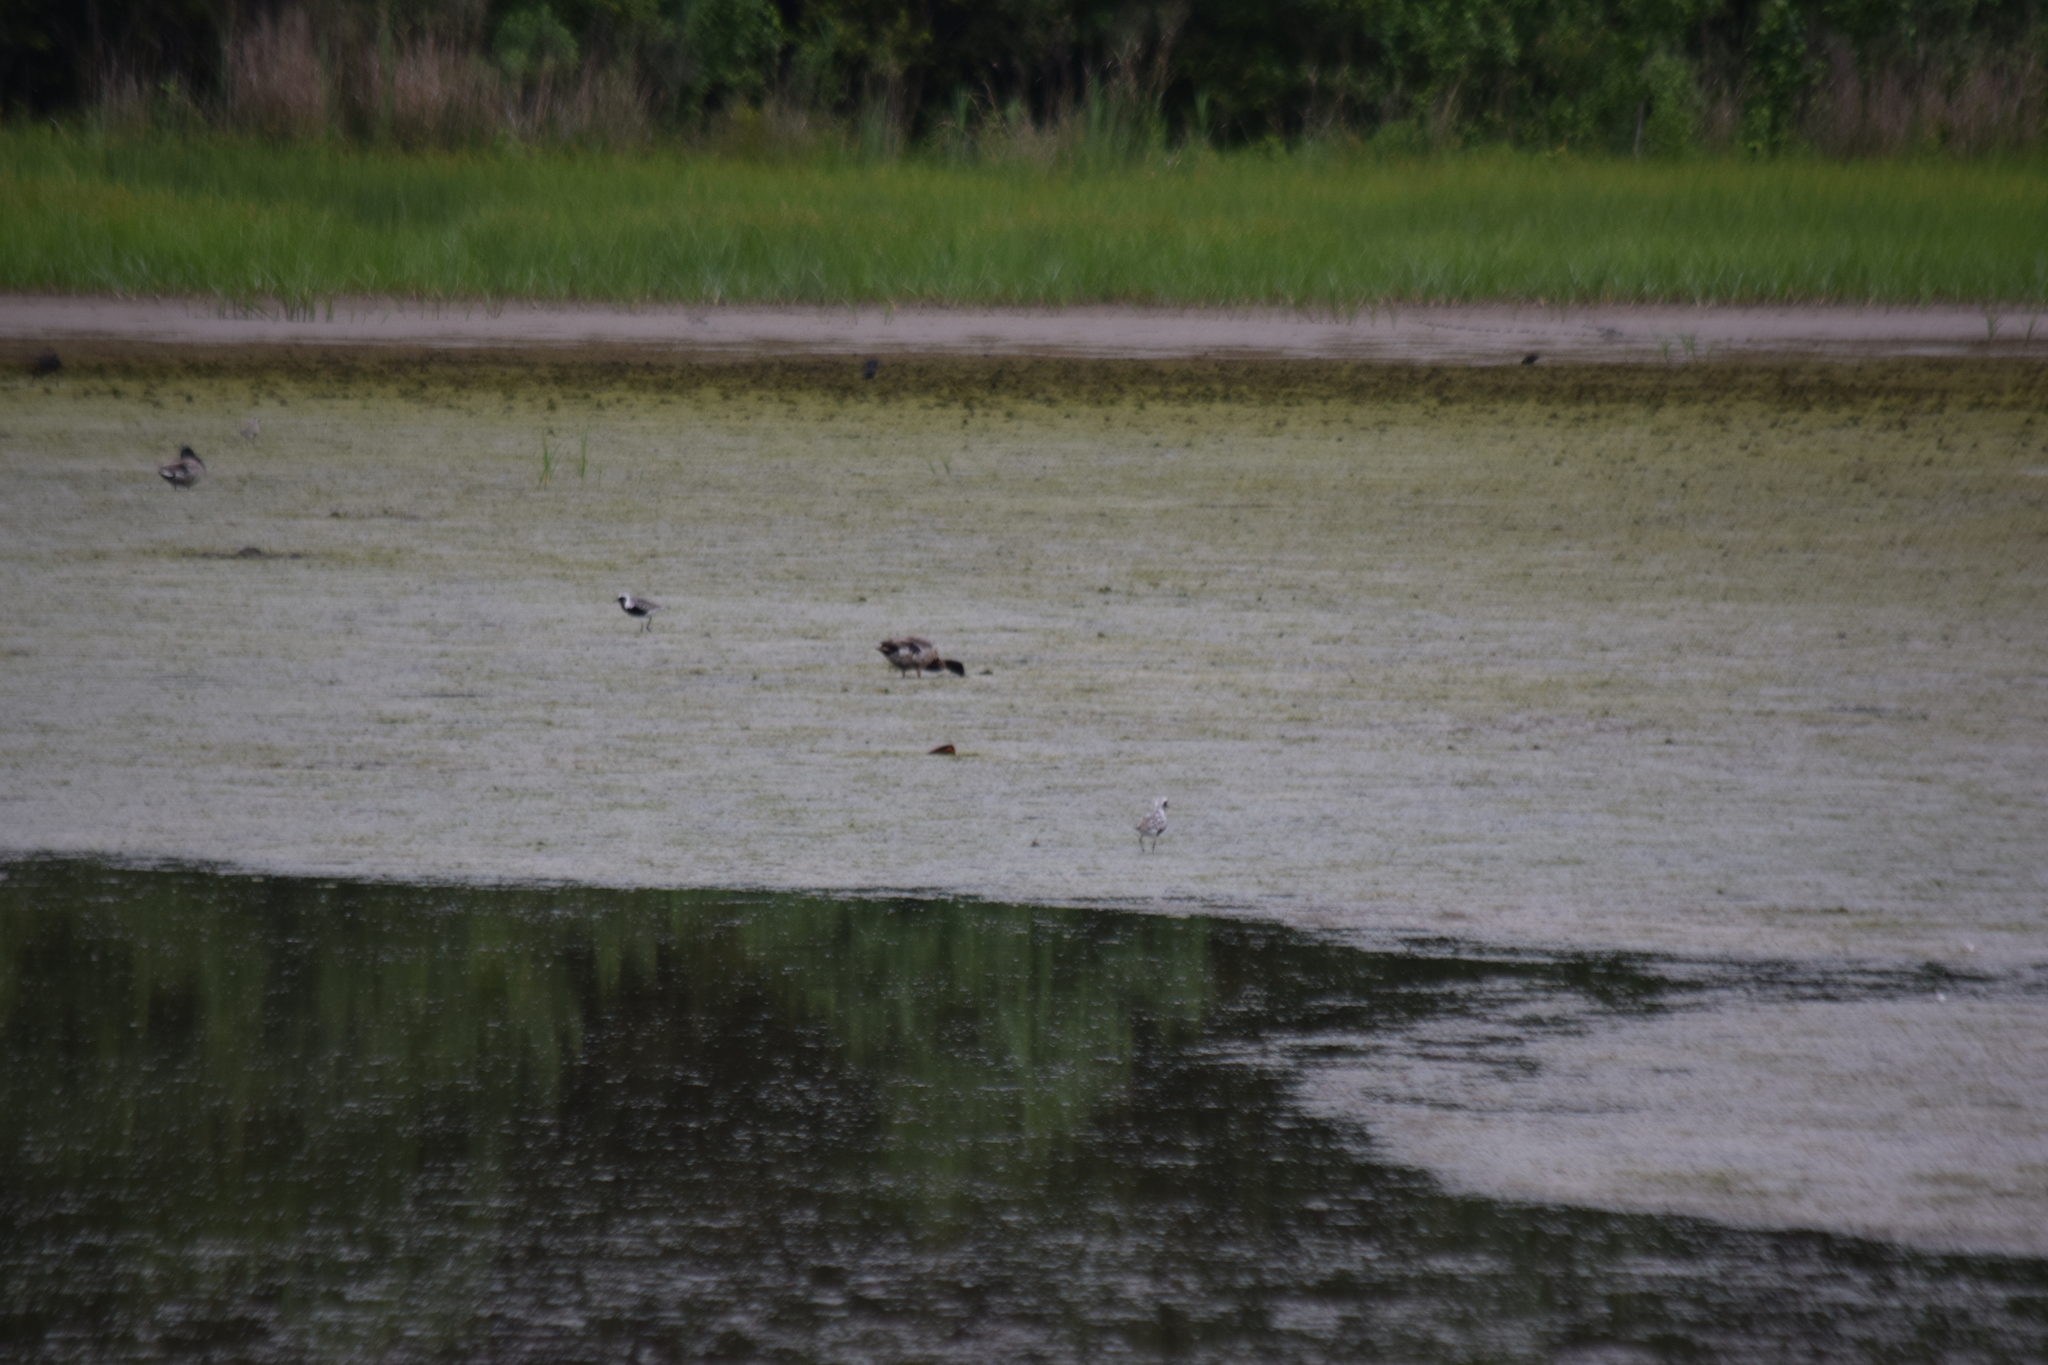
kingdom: Animalia
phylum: Chordata
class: Aves
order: Charadriiformes
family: Charadriidae
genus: Pluvialis
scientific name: Pluvialis squatarola
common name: Grey plover
